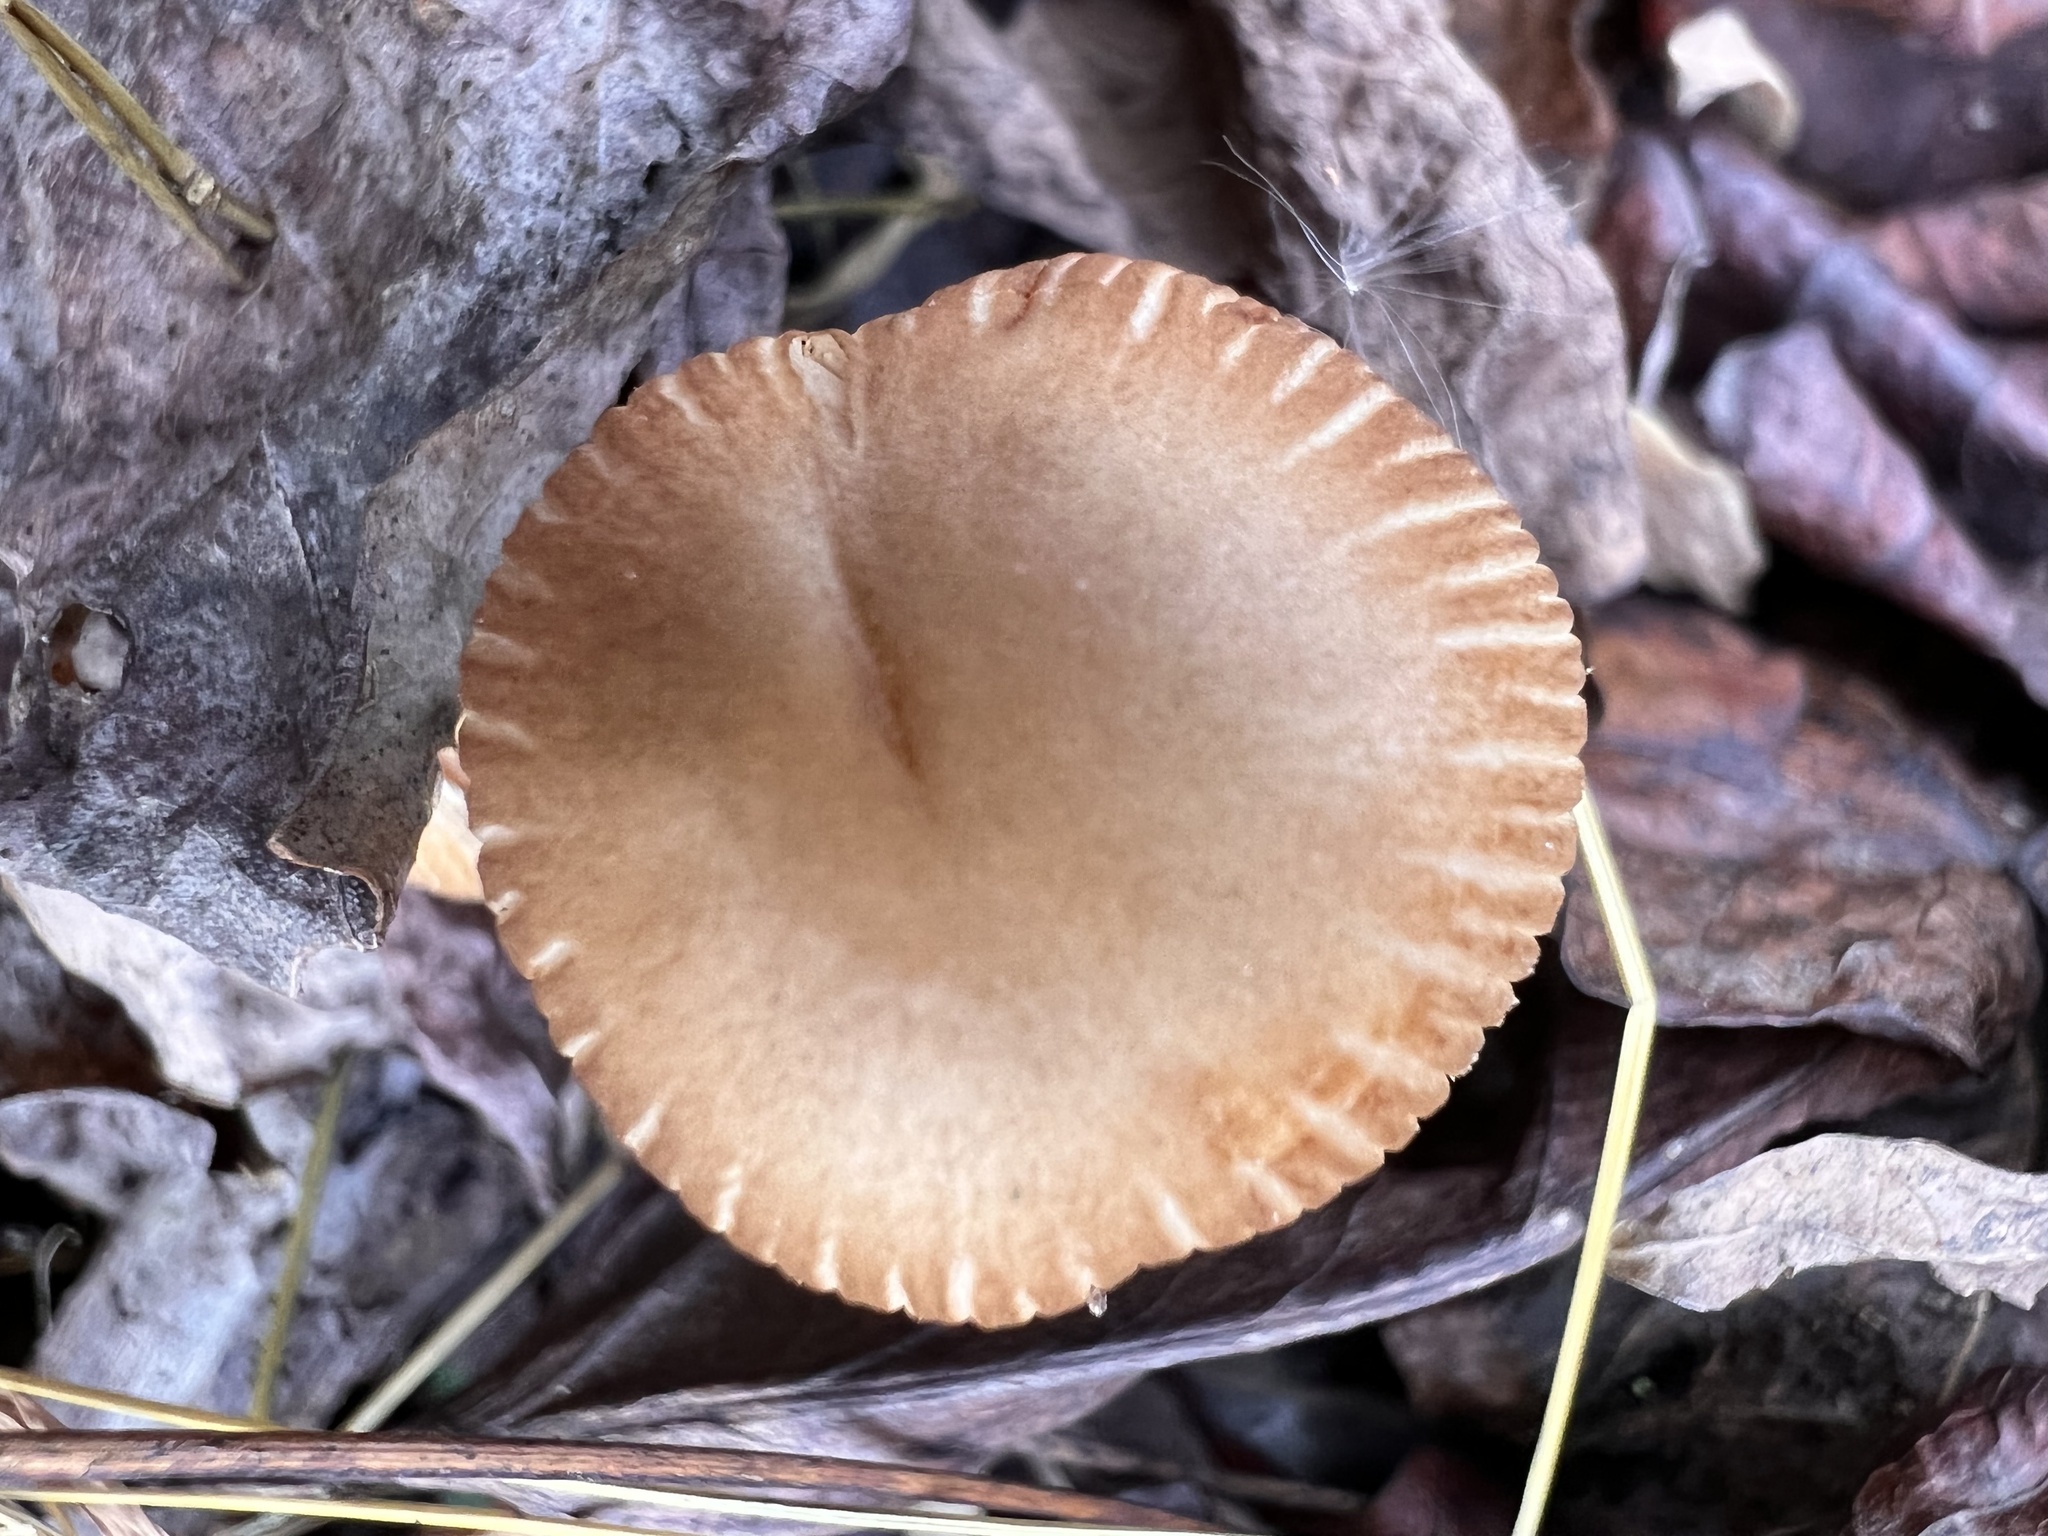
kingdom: Fungi
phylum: Basidiomycota
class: Agaricomycetes
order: Agaricales
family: Psathyrellaceae
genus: Coprinellus
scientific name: Coprinellus micaceus
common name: Glistening ink-cap
